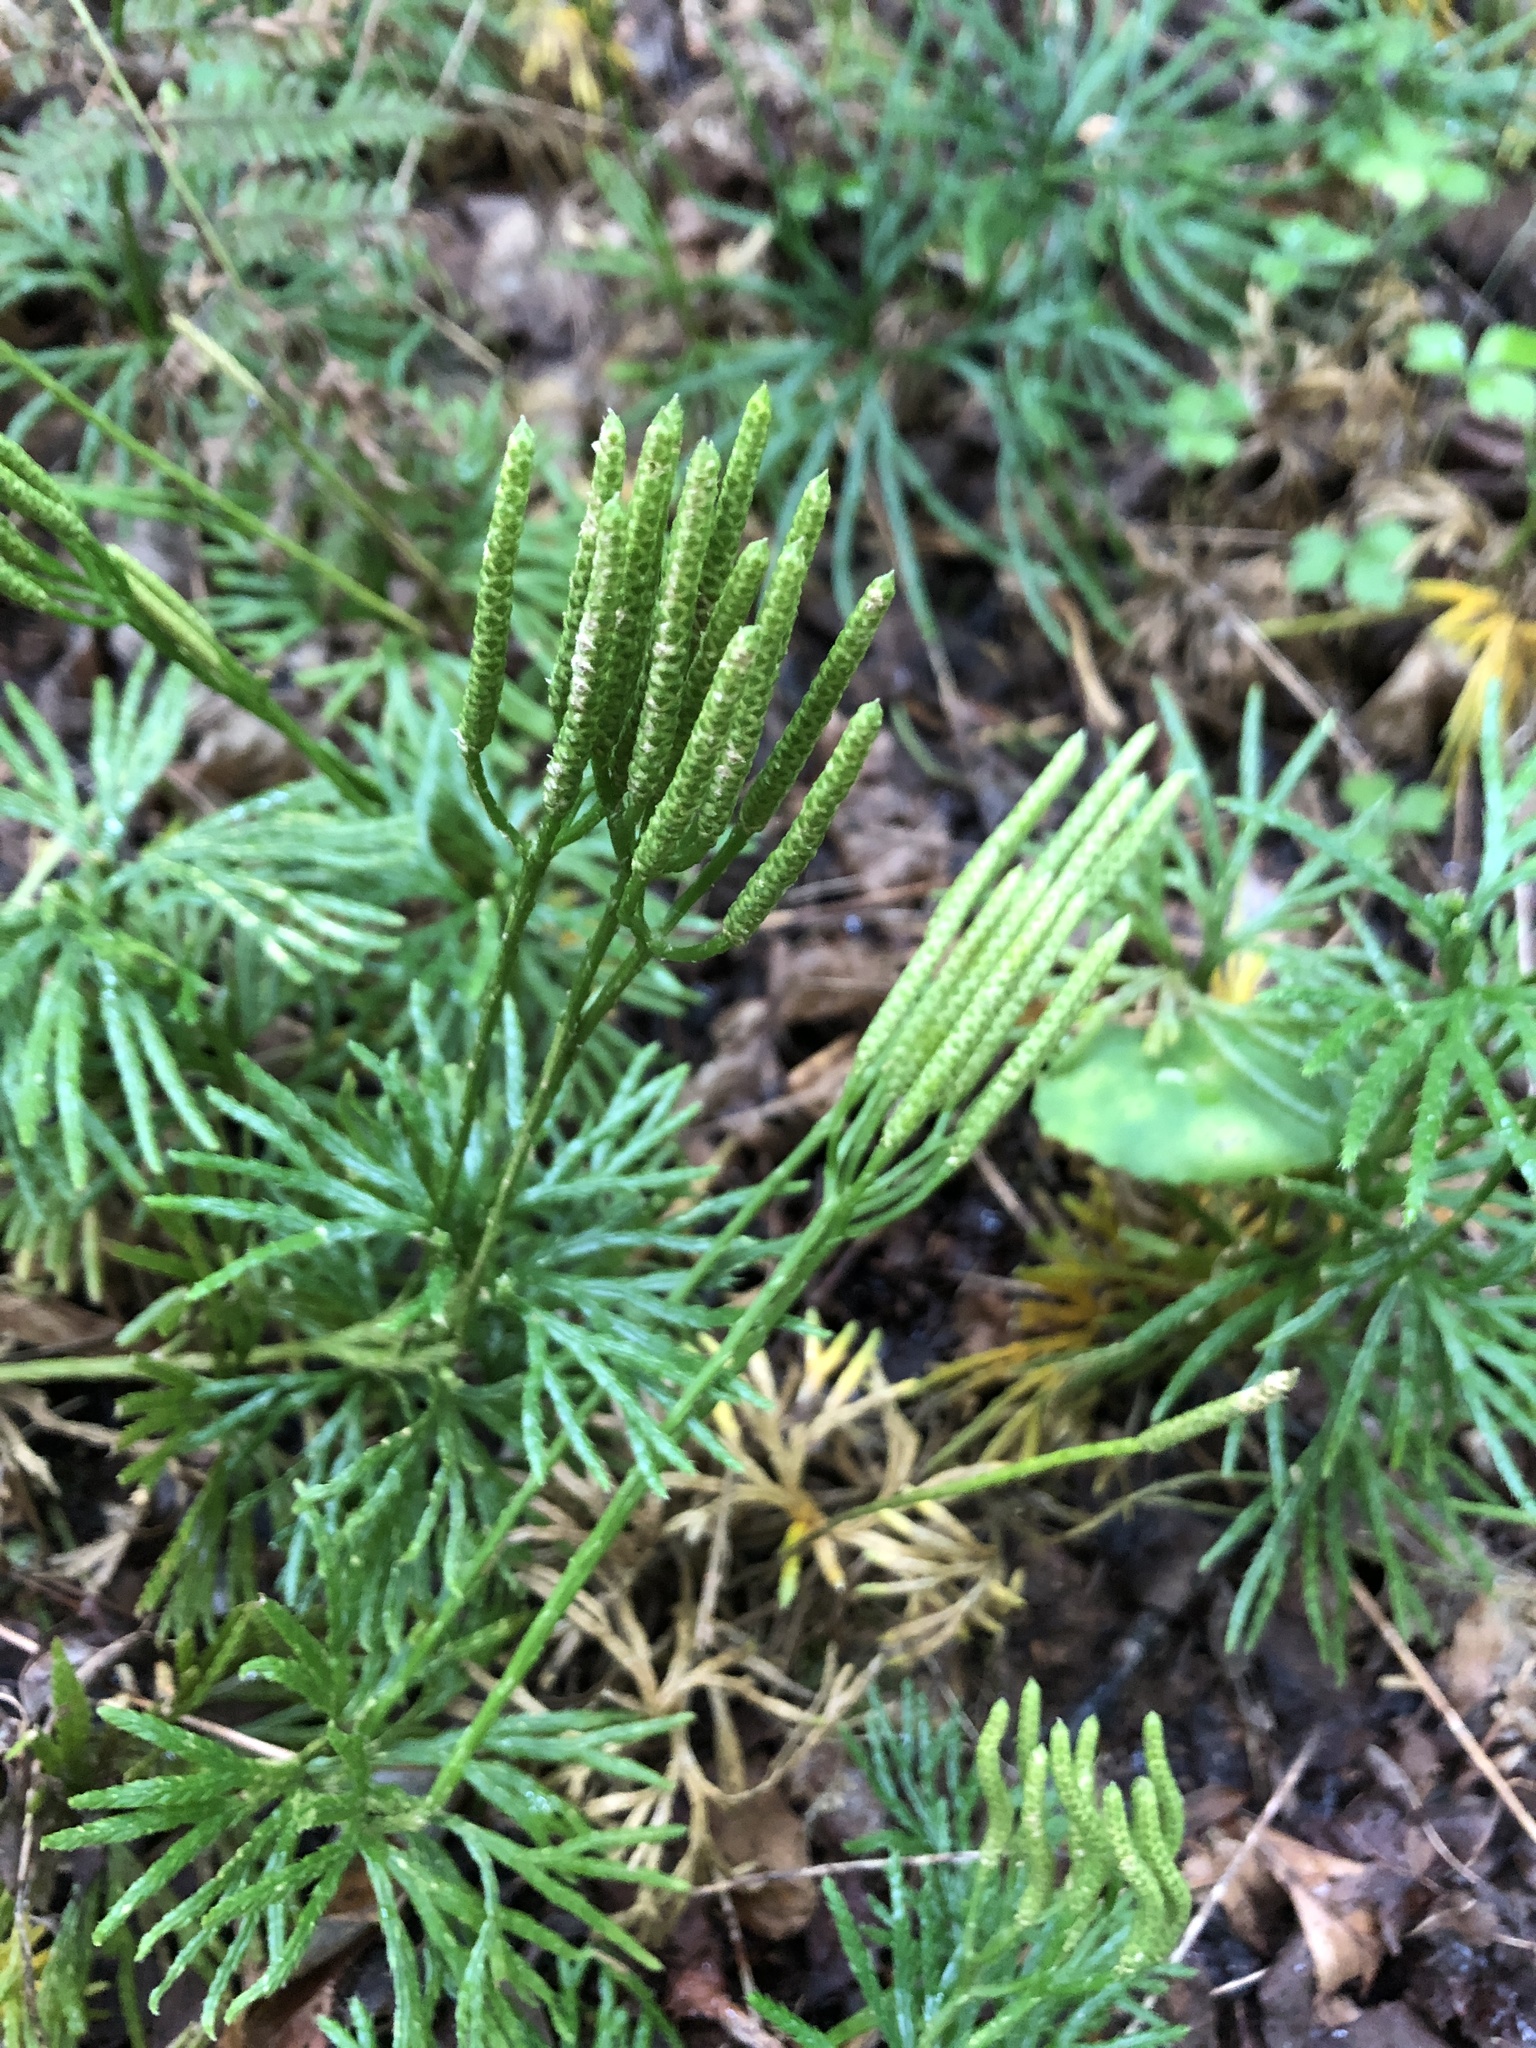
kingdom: Plantae
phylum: Tracheophyta
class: Lycopodiopsida
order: Lycopodiales
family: Lycopodiaceae
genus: Diphasiastrum
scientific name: Diphasiastrum digitatum
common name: Southern running-pine
